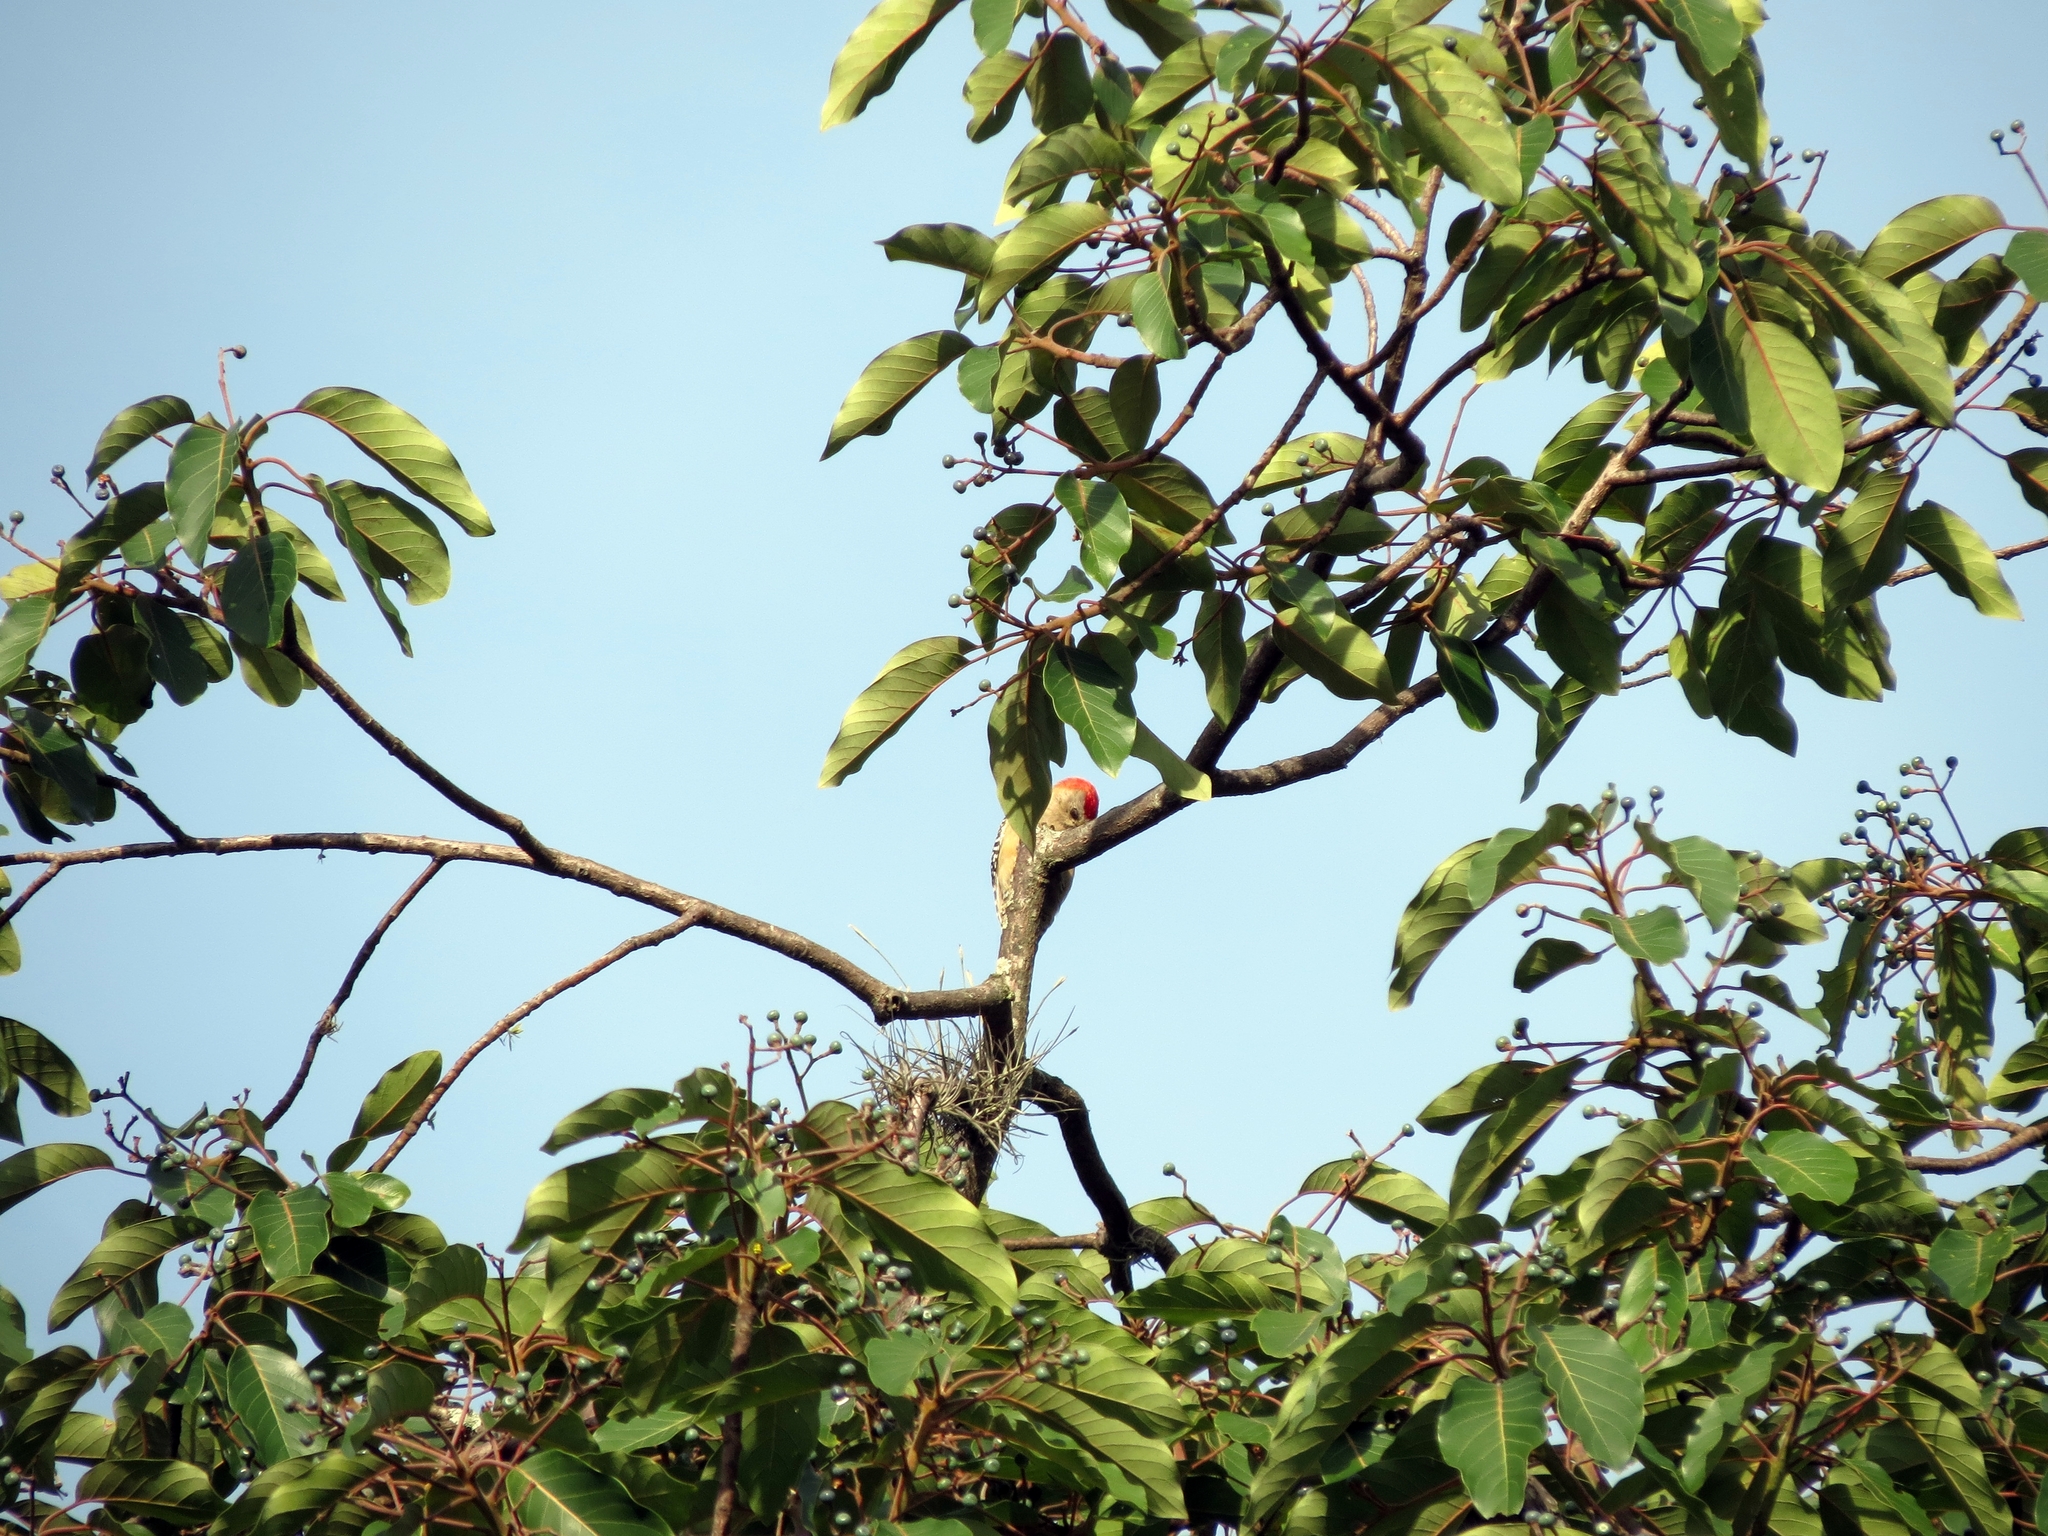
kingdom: Animalia
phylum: Chordata
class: Aves
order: Piciformes
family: Picidae
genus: Melanerpes
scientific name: Melanerpes rubricapillus
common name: Red-crowned woodpecker
